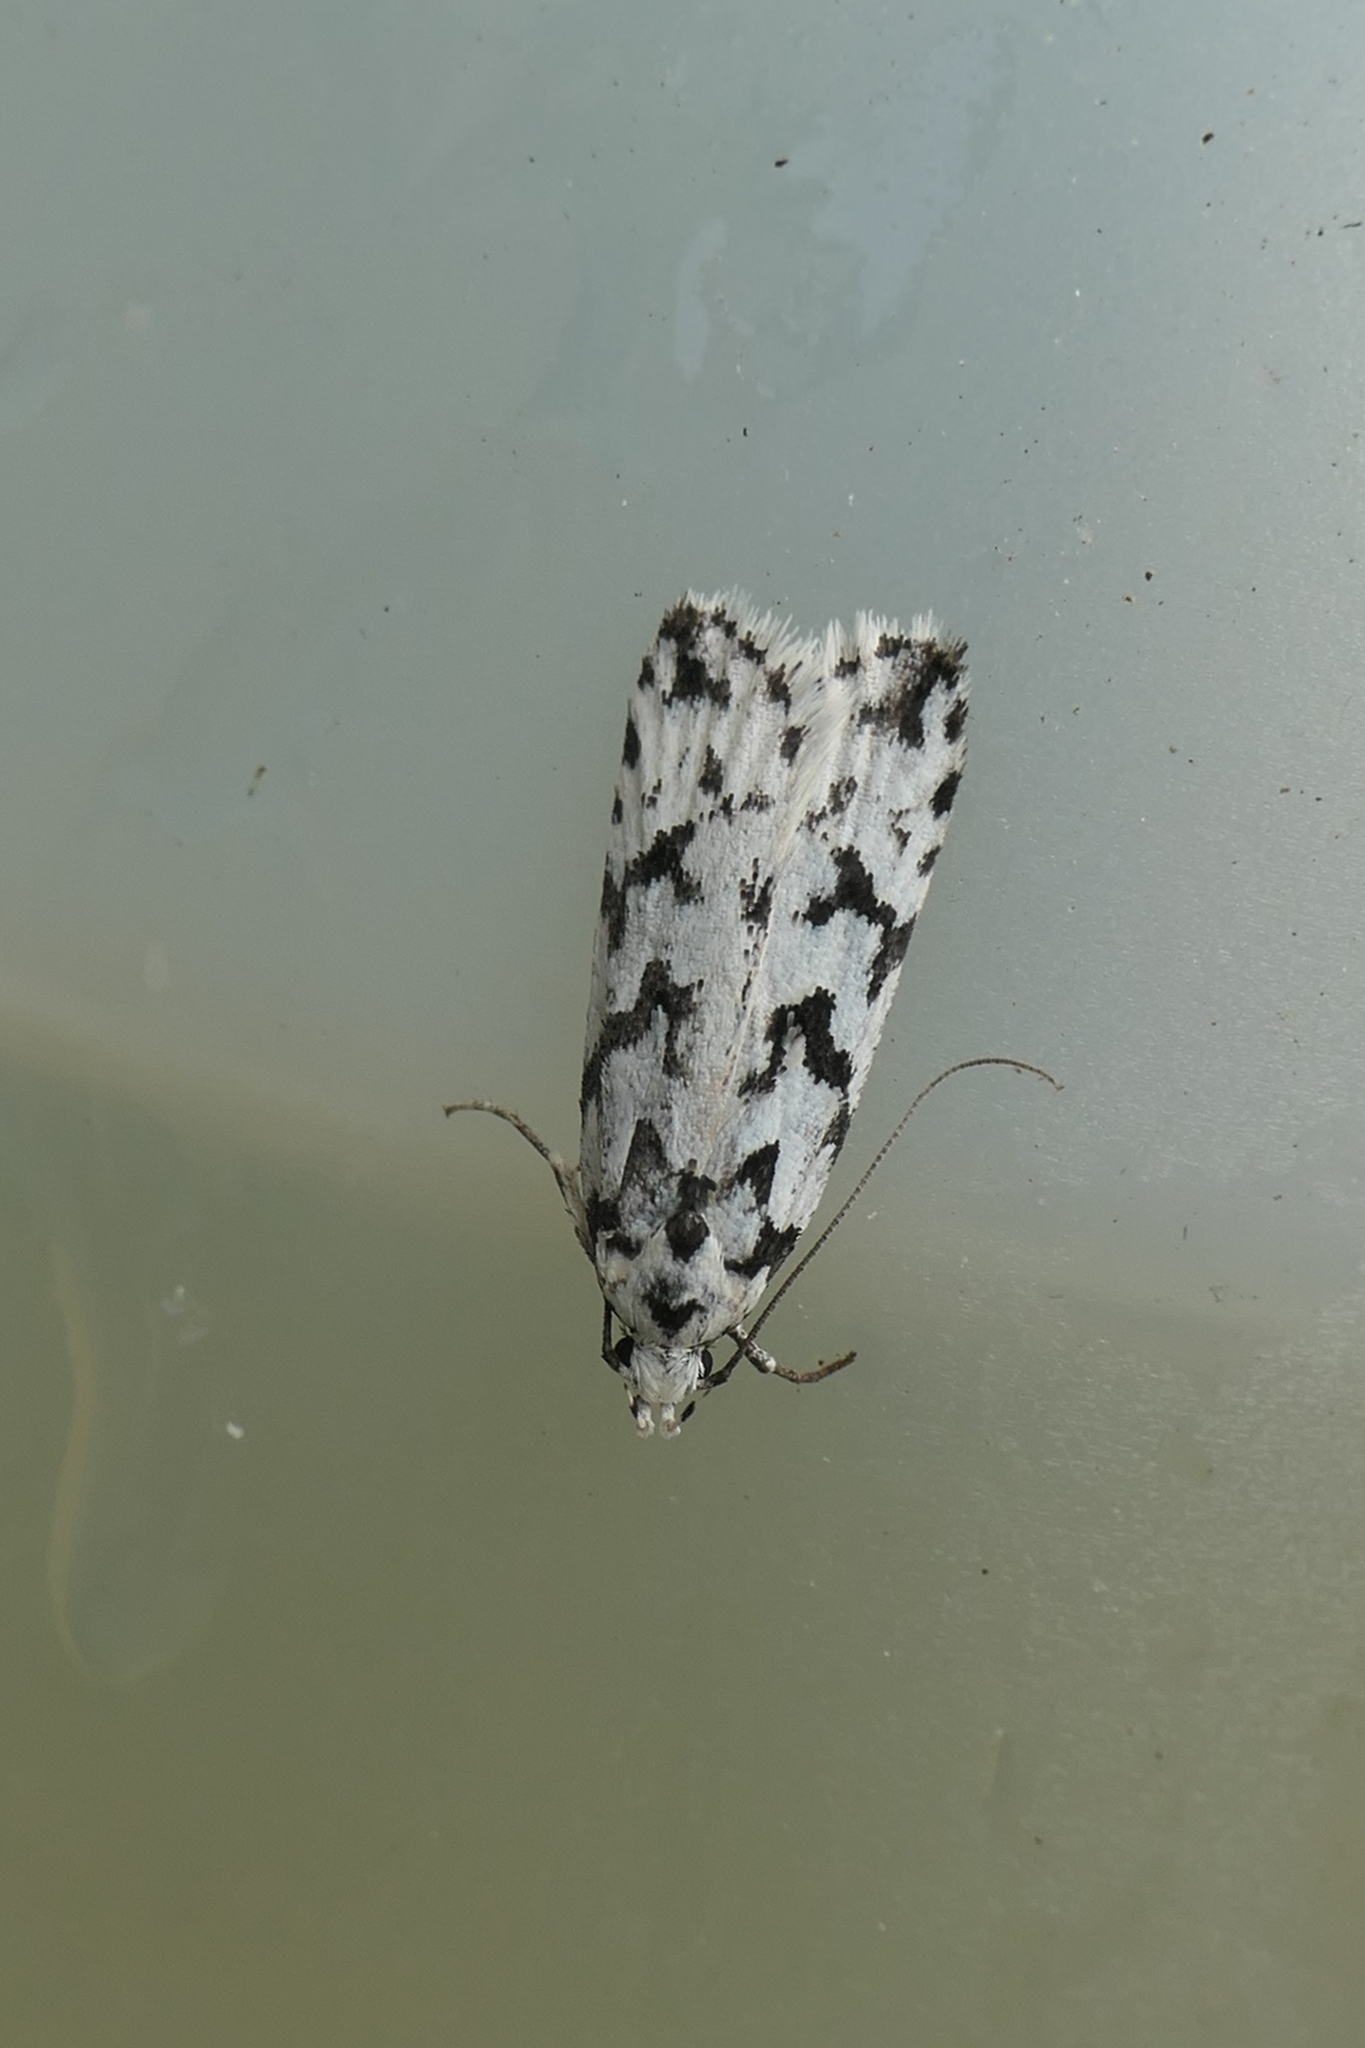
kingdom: Animalia
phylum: Arthropoda
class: Insecta
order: Lepidoptera
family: Oecophoridae
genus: Izatha
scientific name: Izatha katadiktya
